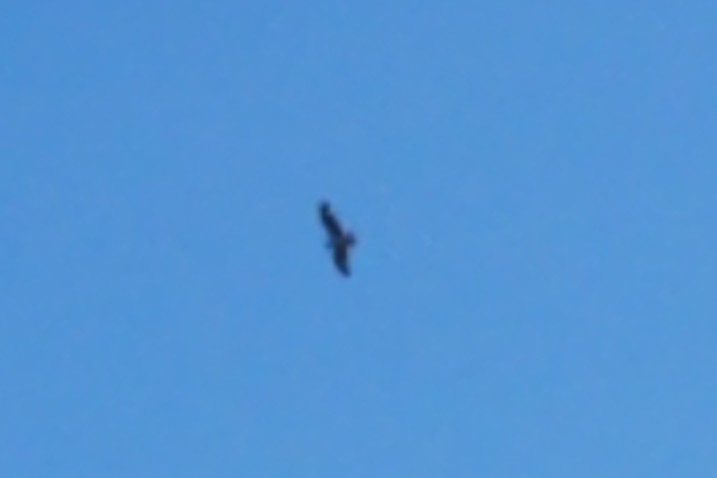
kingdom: Animalia
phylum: Chordata
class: Aves
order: Accipitriformes
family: Pandionidae
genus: Pandion
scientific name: Pandion haliaetus
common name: Osprey
